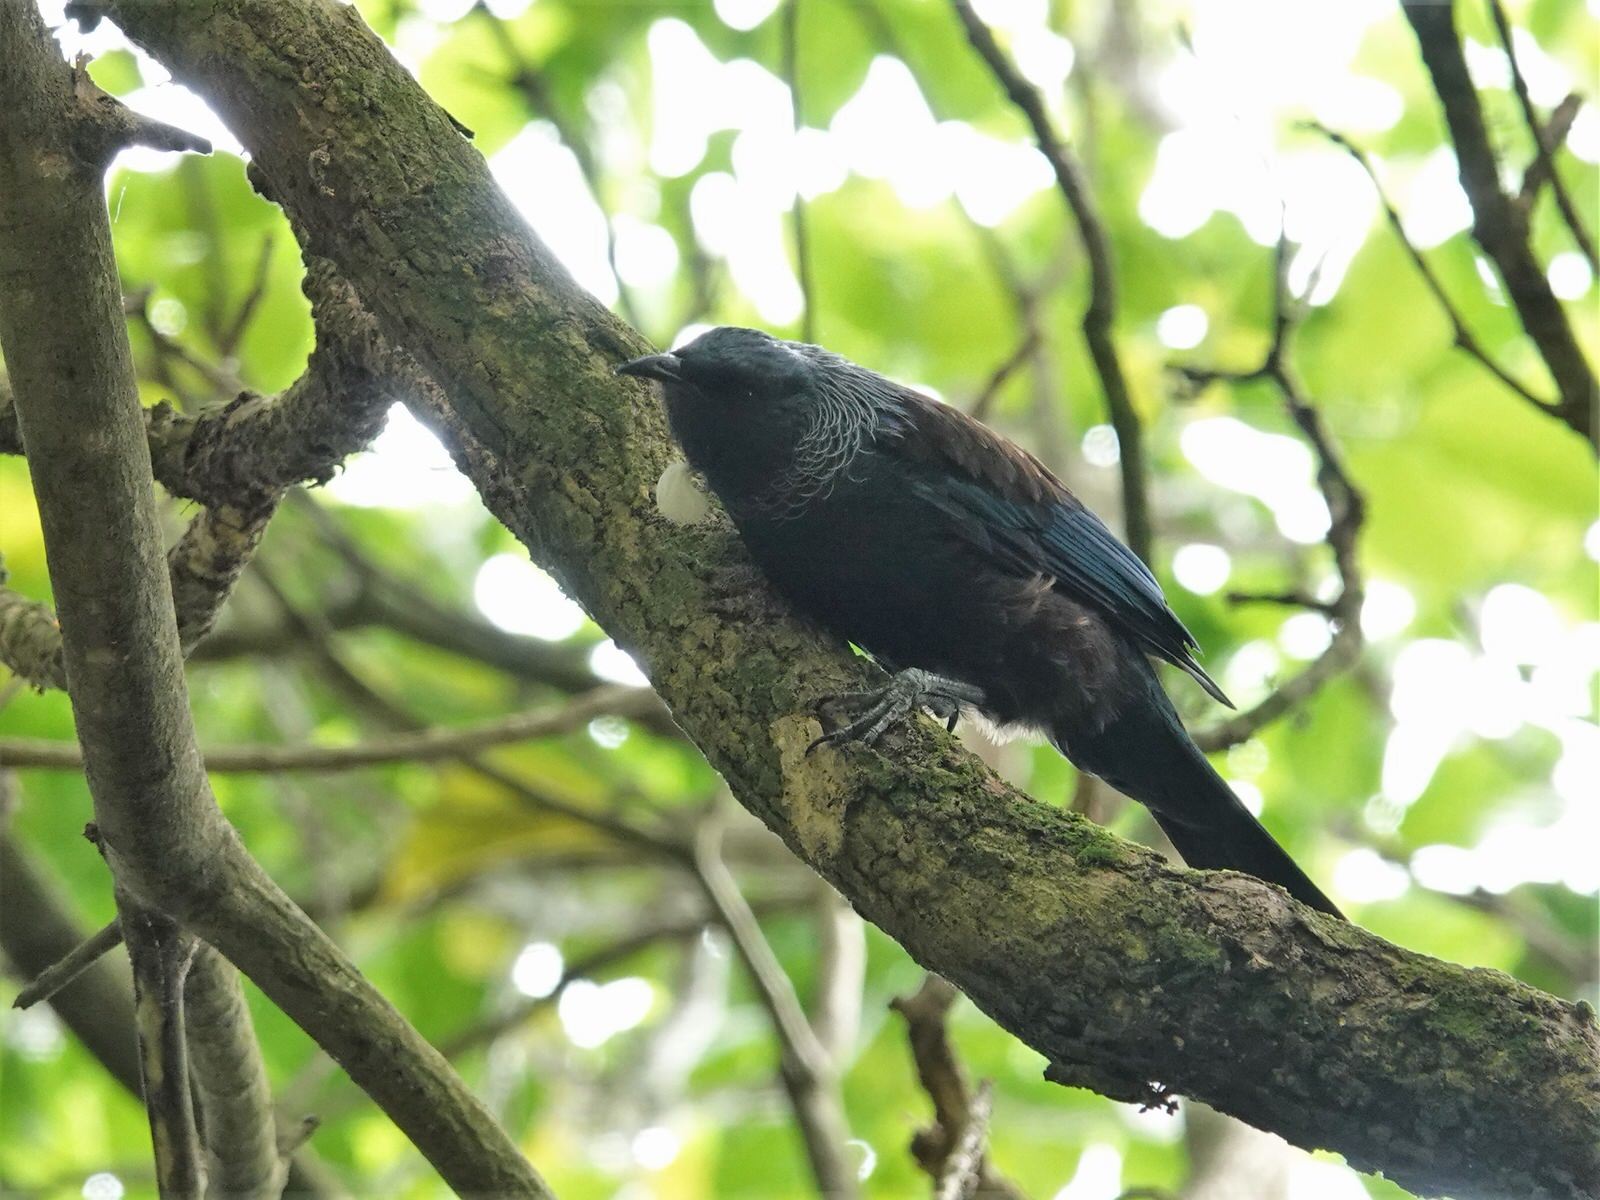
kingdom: Animalia
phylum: Chordata
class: Aves
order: Passeriformes
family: Meliphagidae
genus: Prosthemadera
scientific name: Prosthemadera novaeseelandiae
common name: Tui
